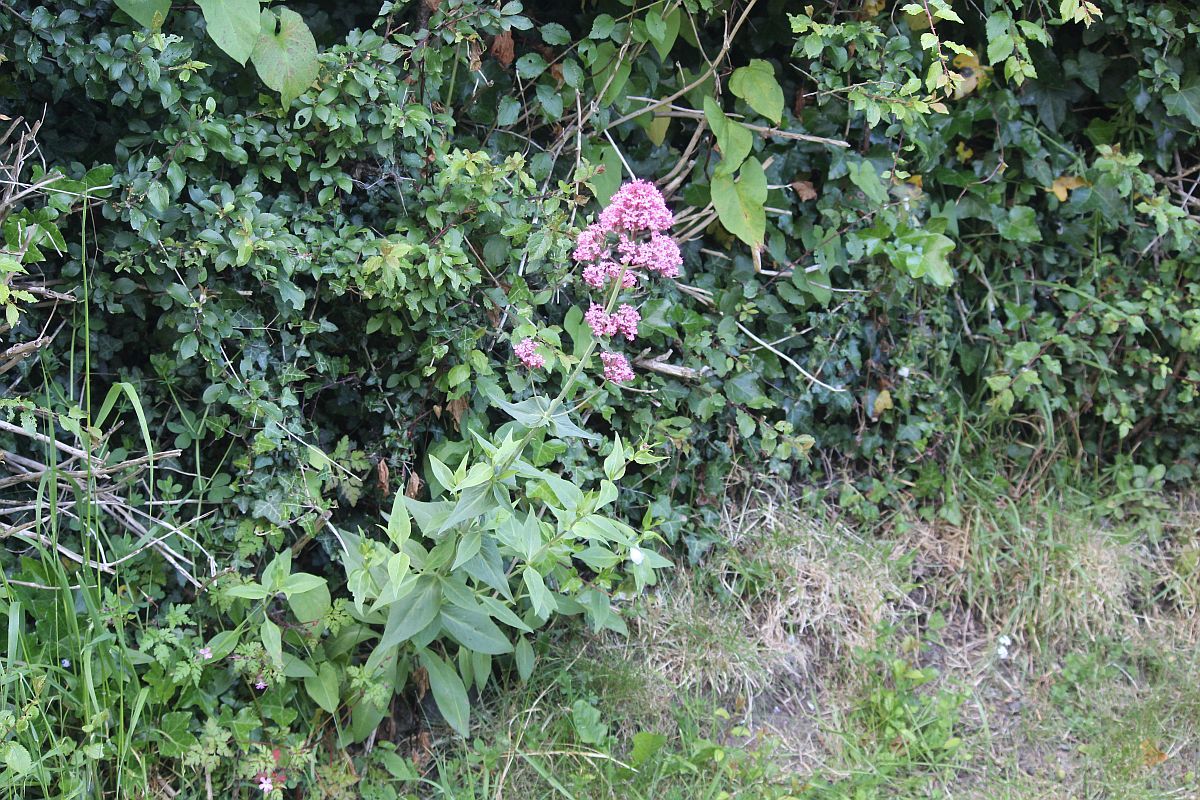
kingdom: Plantae
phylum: Tracheophyta
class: Magnoliopsida
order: Dipsacales
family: Caprifoliaceae
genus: Centranthus
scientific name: Centranthus ruber
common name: Red valerian
